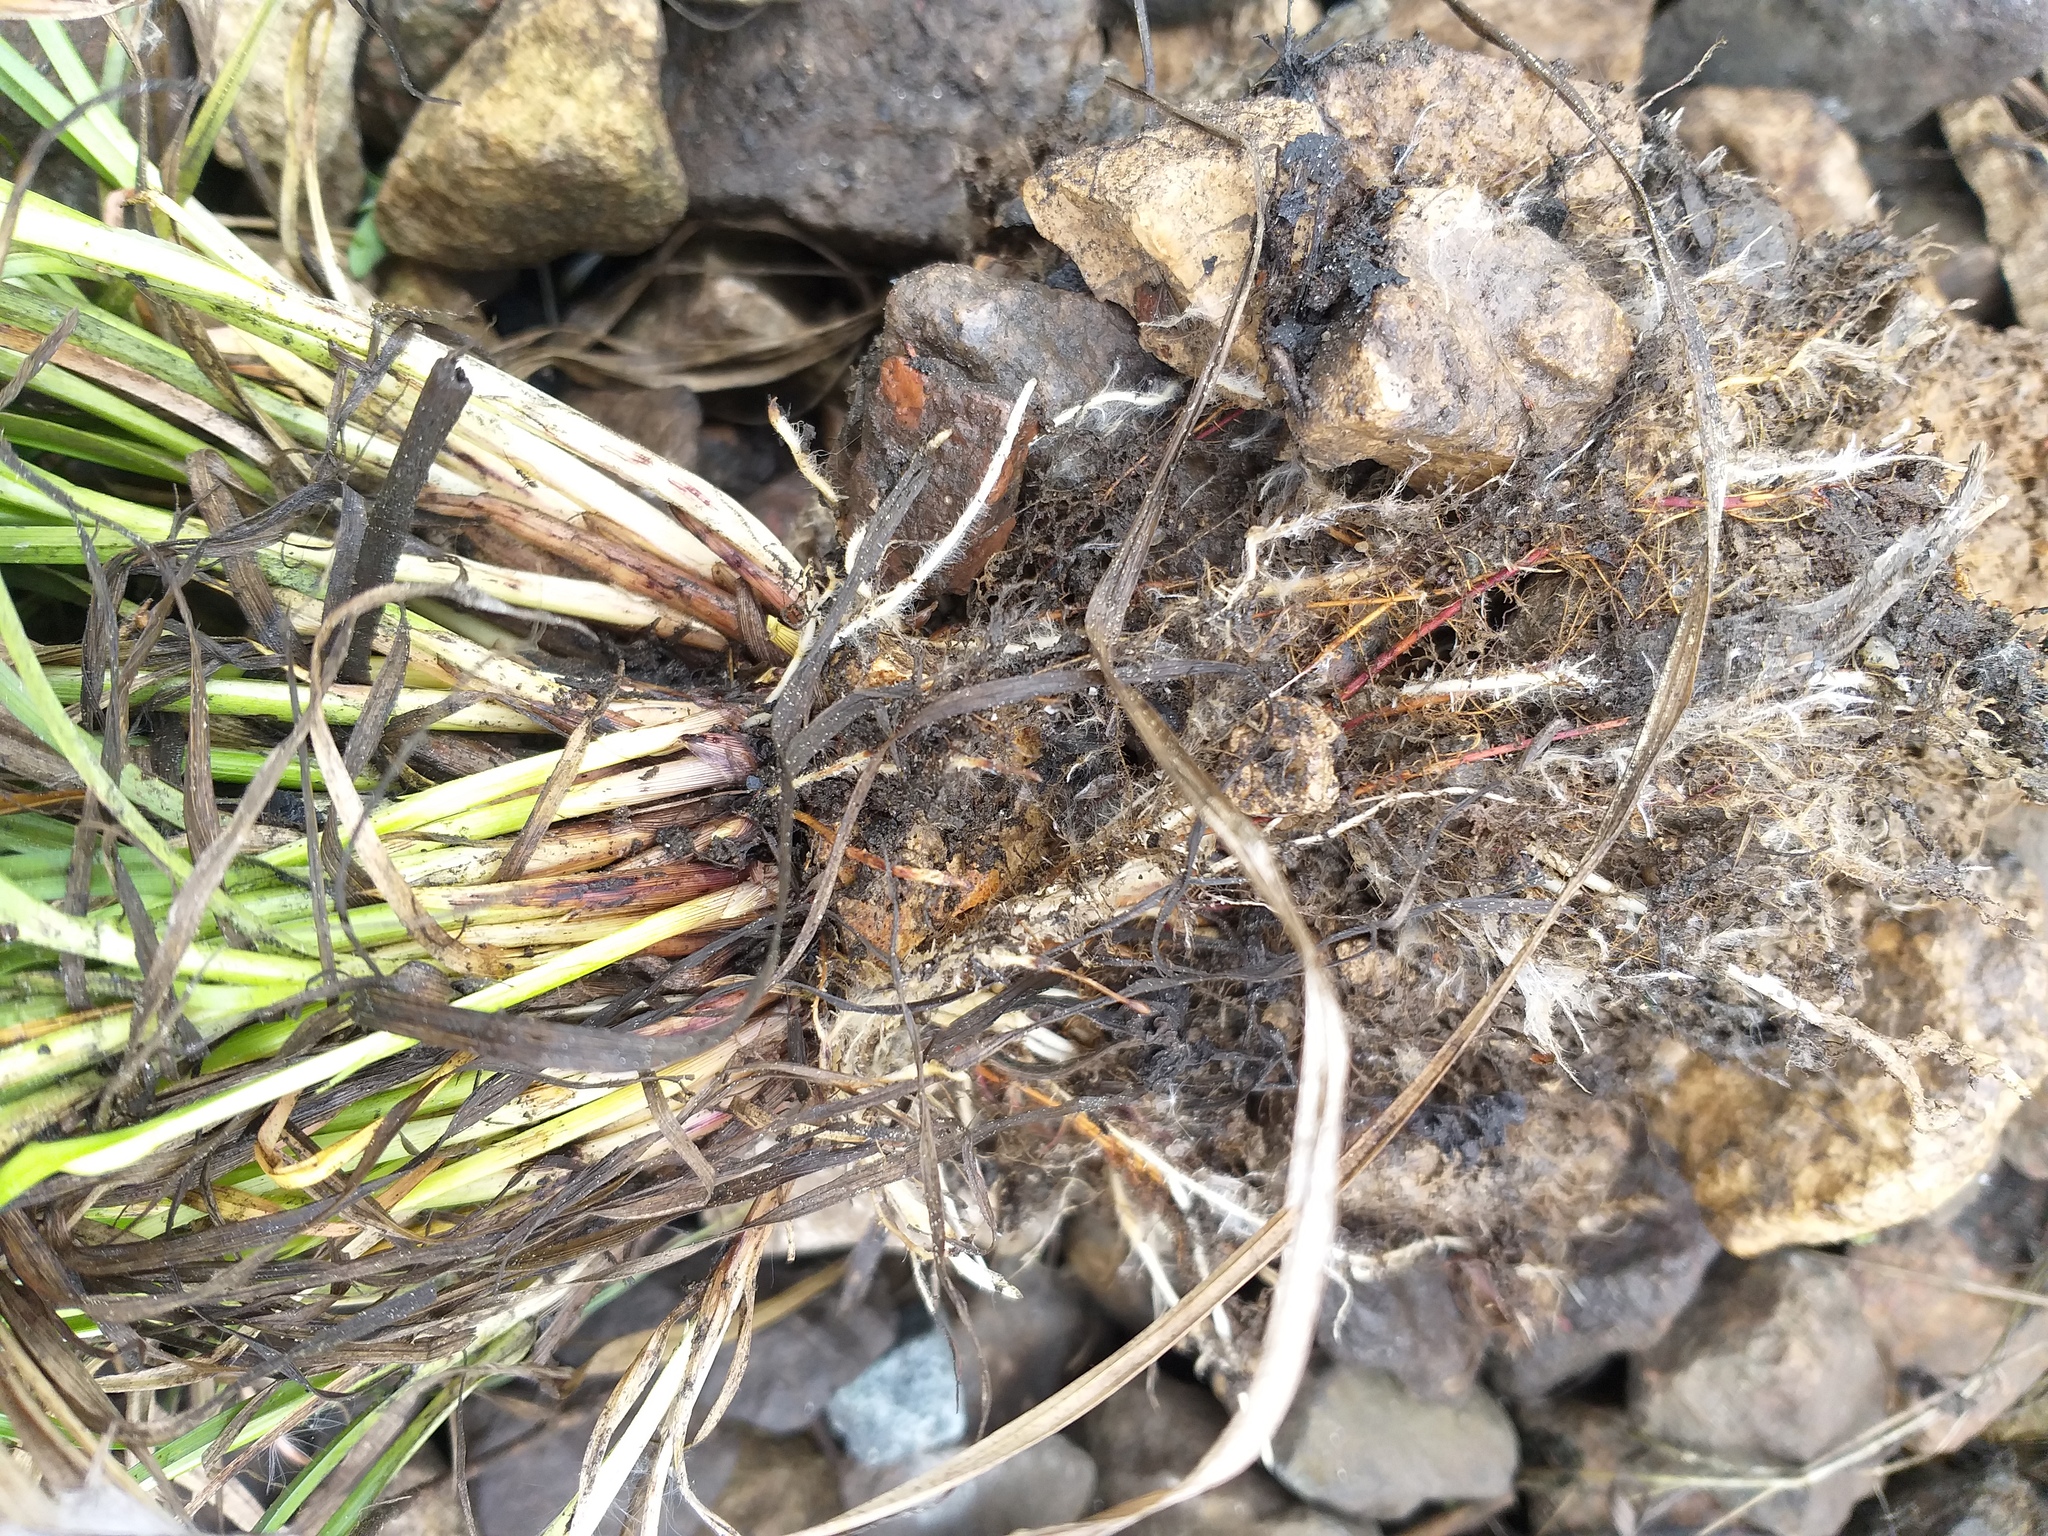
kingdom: Plantae
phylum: Tracheophyta
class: Liliopsida
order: Poales
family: Cyperaceae
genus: Carex
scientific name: Carex spicata
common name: Spiked sedge
